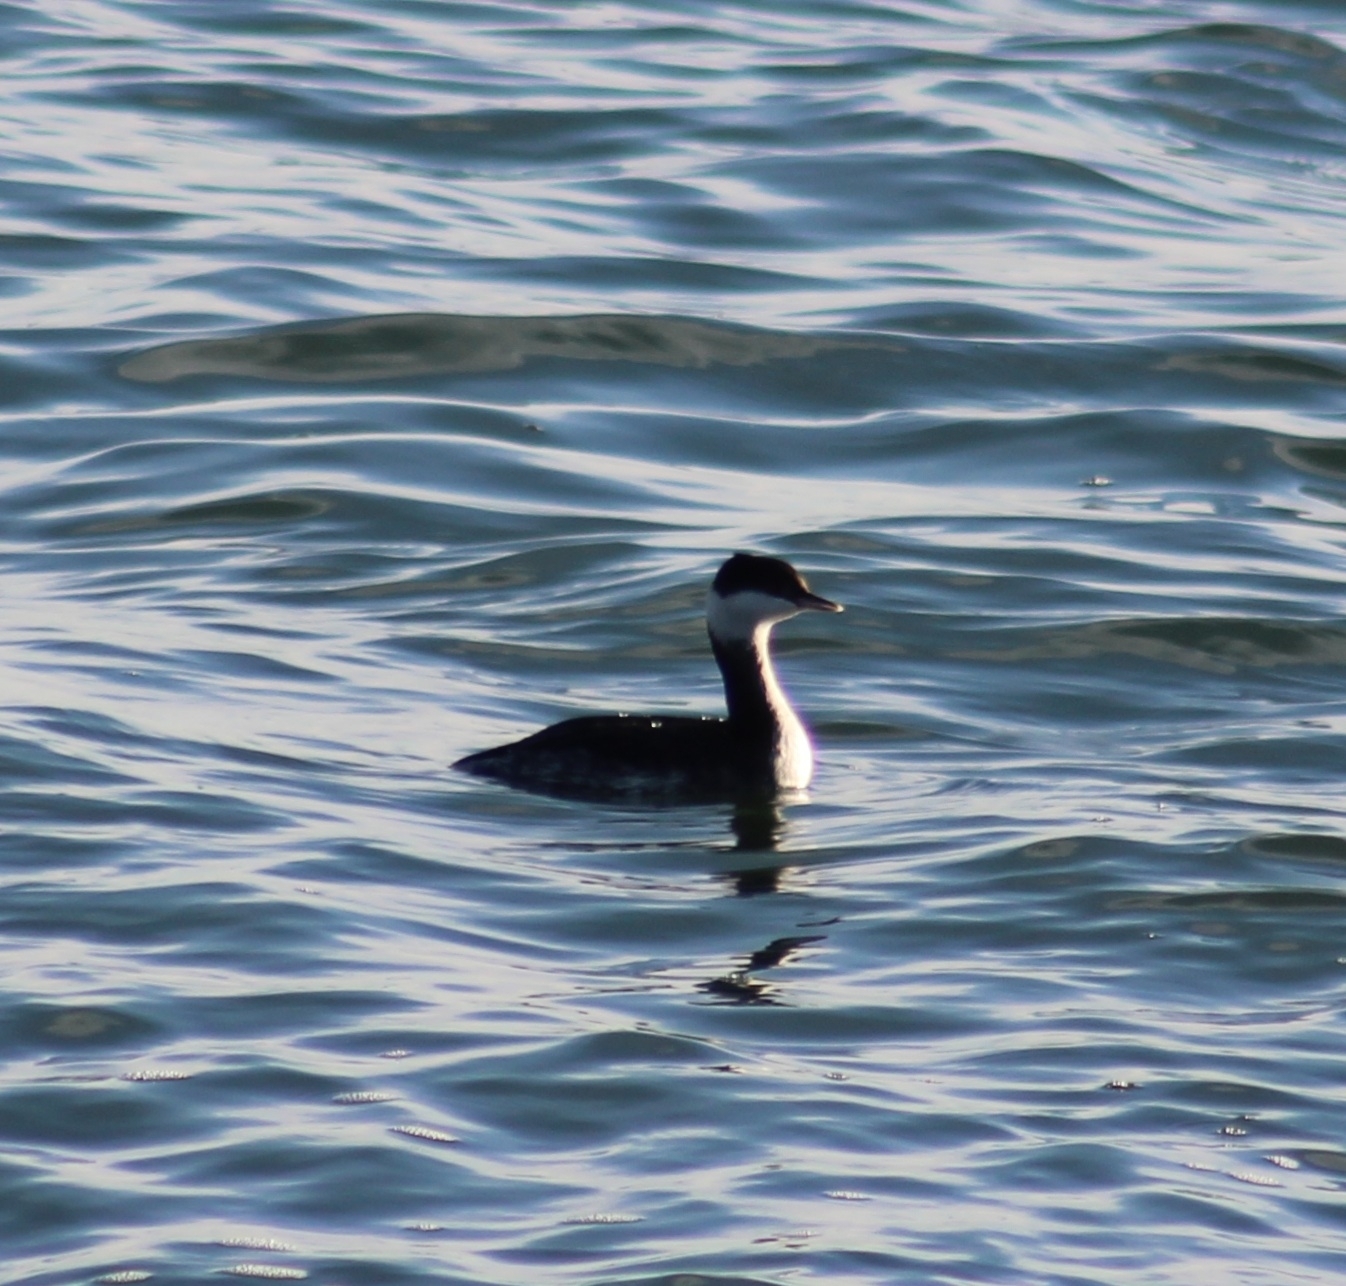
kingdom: Animalia
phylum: Chordata
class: Aves
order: Podicipediformes
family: Podicipedidae
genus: Podiceps
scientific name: Podiceps auritus
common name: Horned grebe
